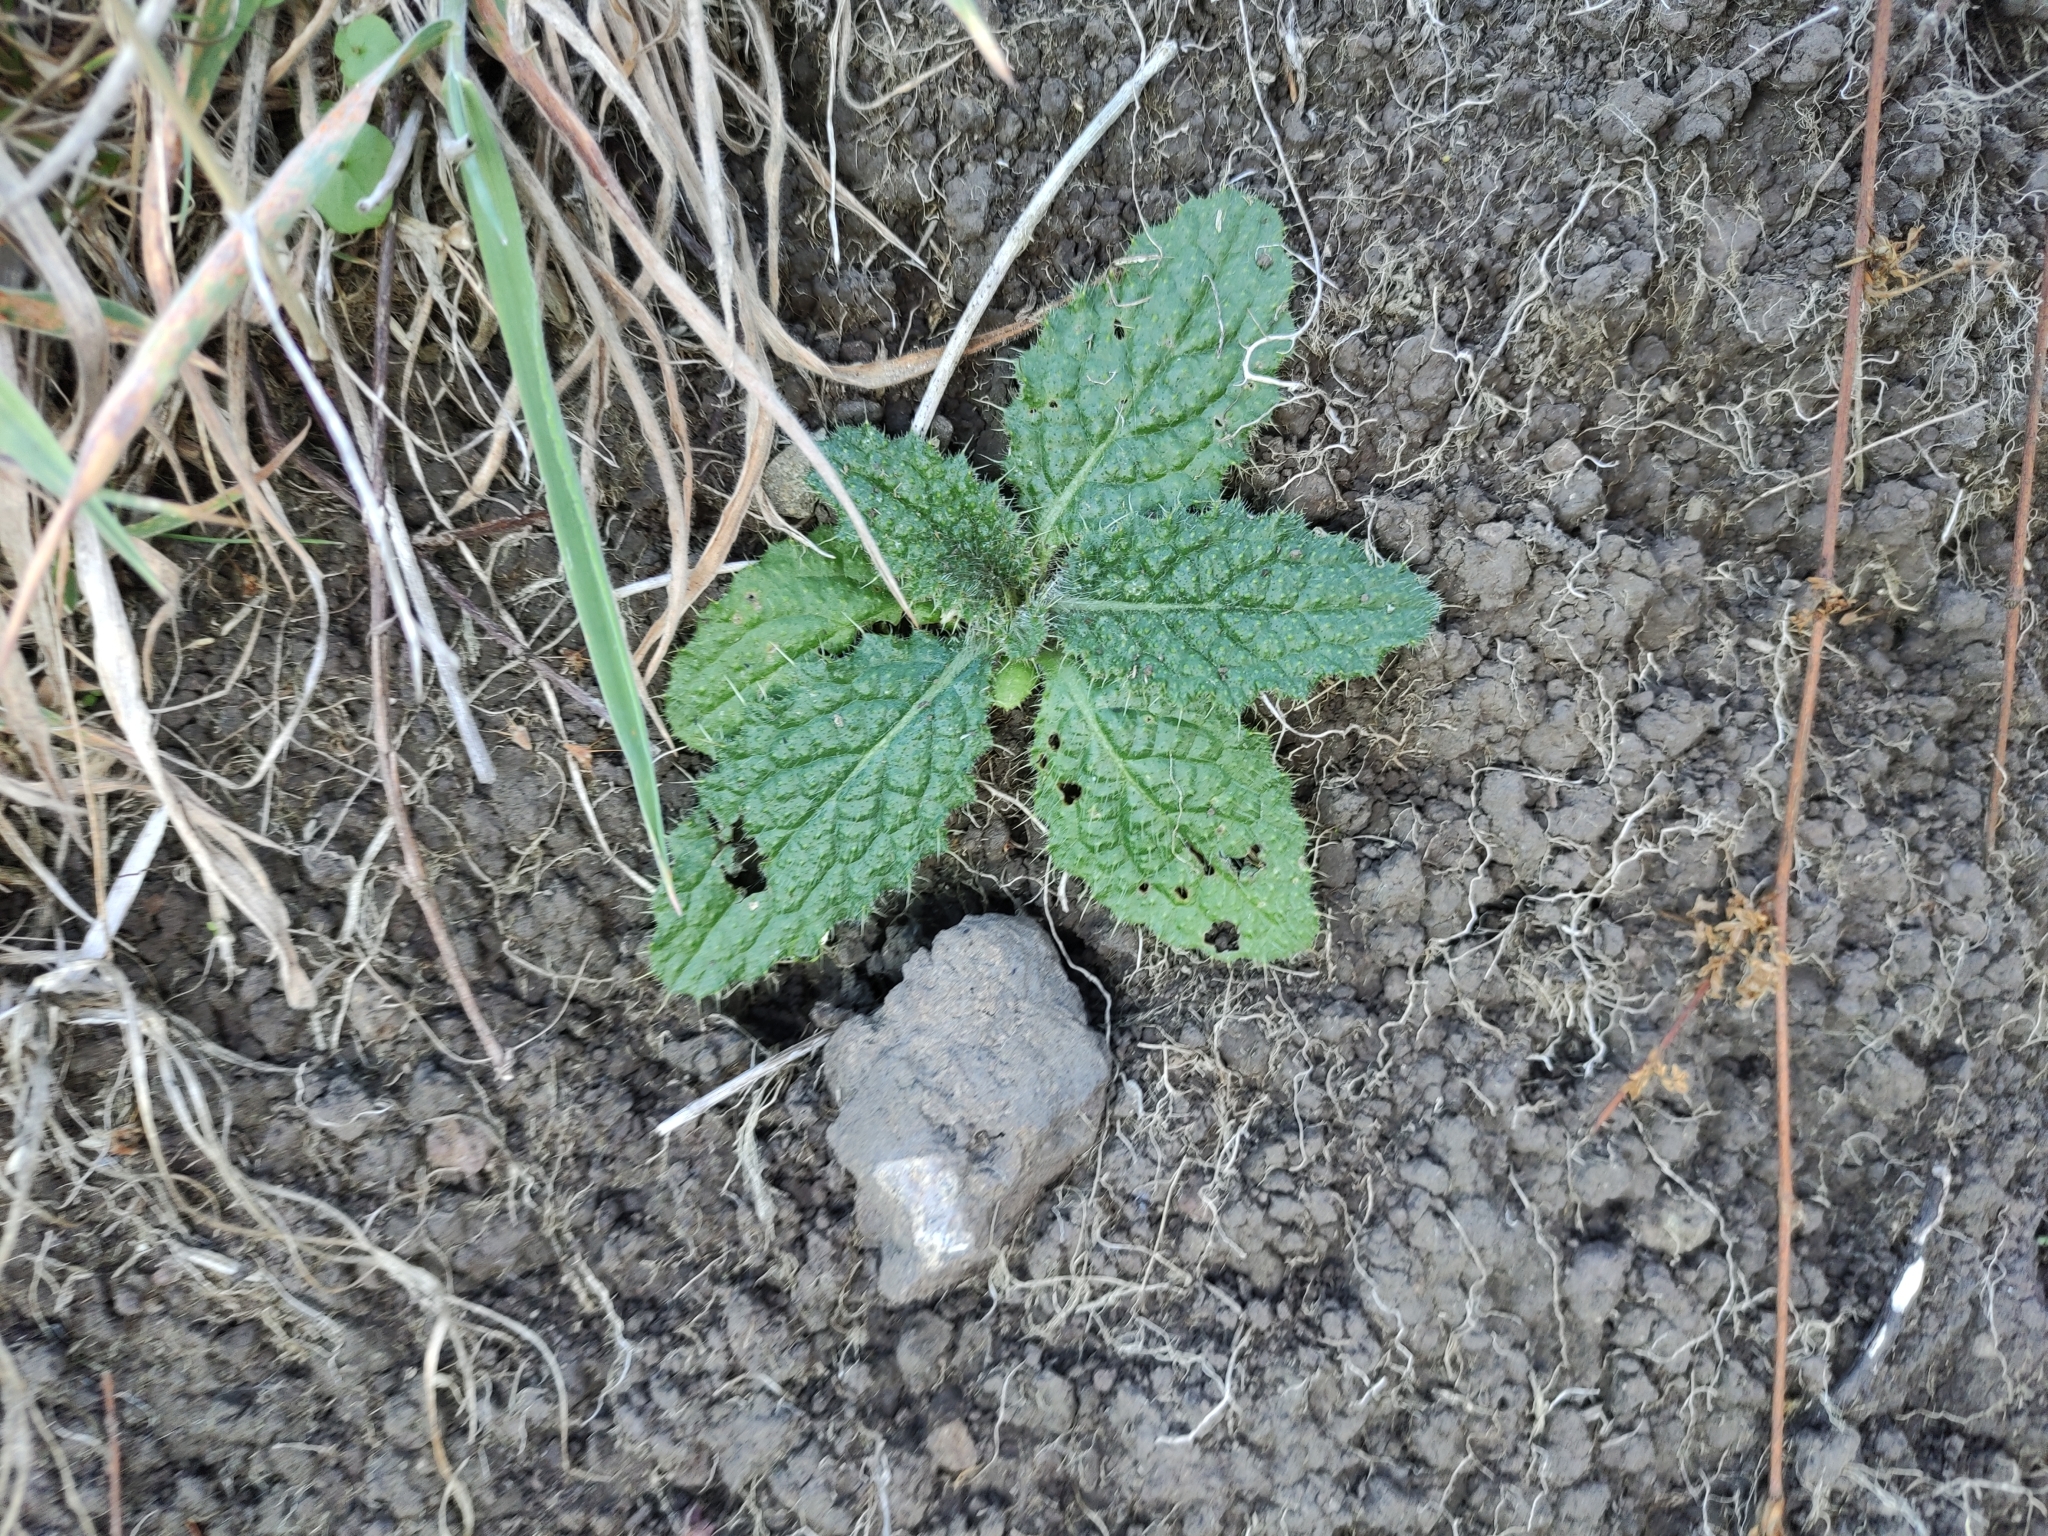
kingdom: Plantae
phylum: Tracheophyta
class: Magnoliopsida
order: Asterales
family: Asteraceae
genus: Cirsium
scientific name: Cirsium vulgare
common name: Bull thistle
